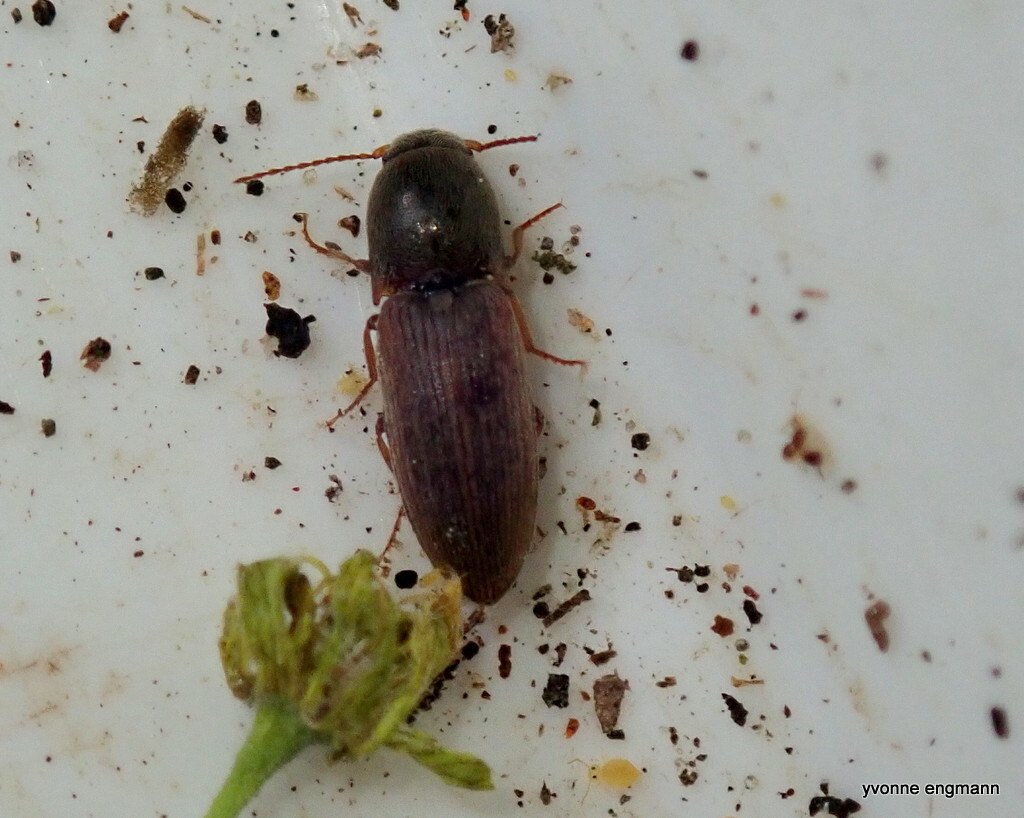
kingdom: Animalia
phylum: Arthropoda
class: Insecta
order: Coleoptera
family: Elateridae
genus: Agriotes
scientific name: Agriotes sputator
